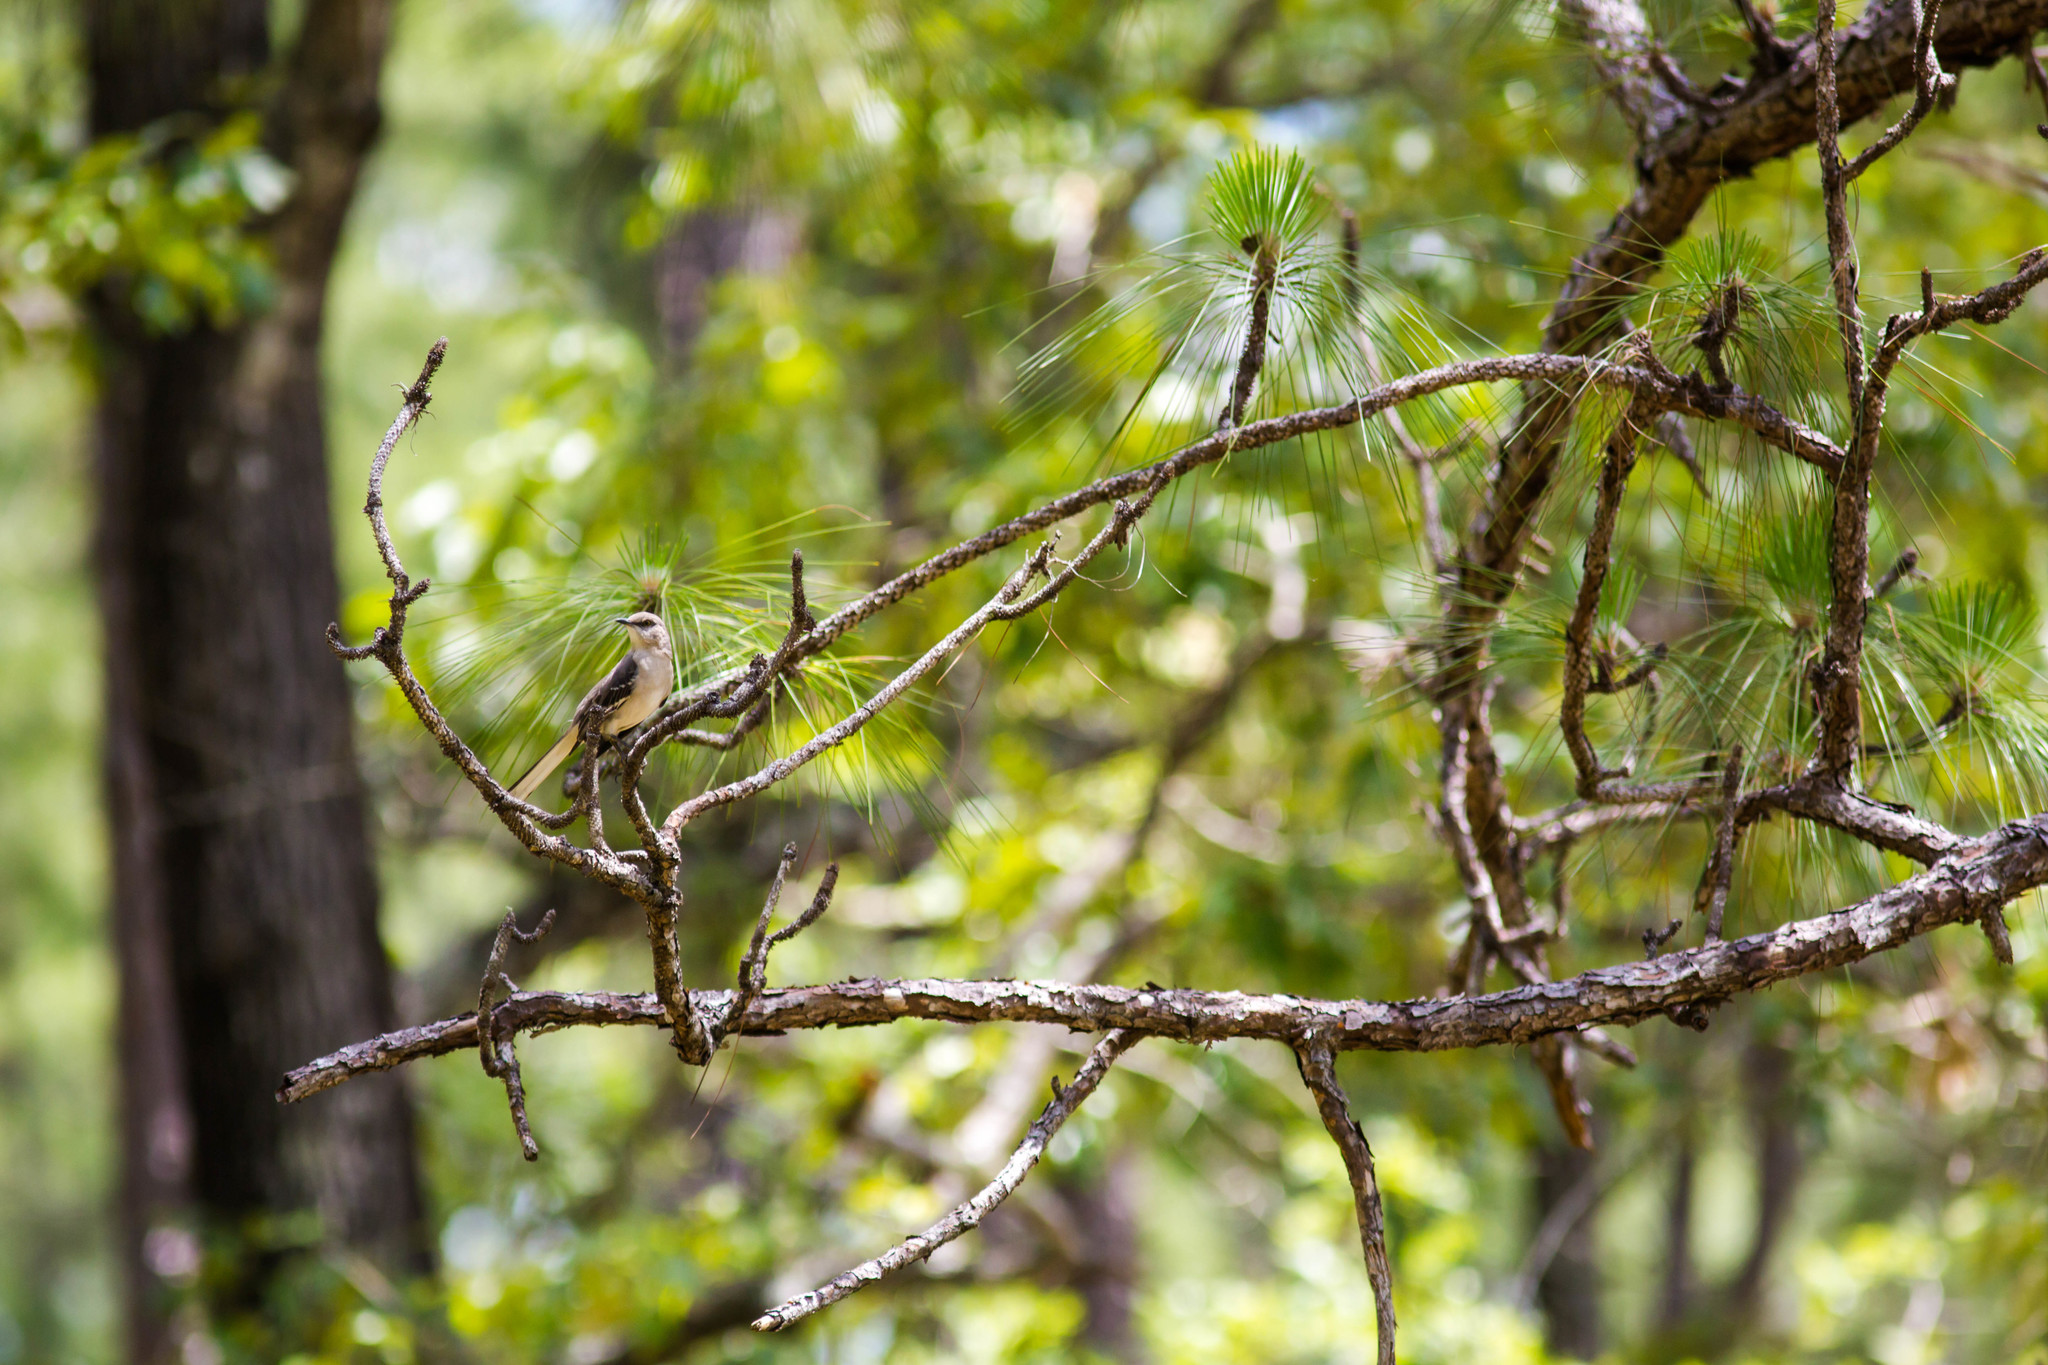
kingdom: Animalia
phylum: Chordata
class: Aves
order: Passeriformes
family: Mimidae
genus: Mimus
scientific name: Mimus polyglottos
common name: Northern mockingbird
